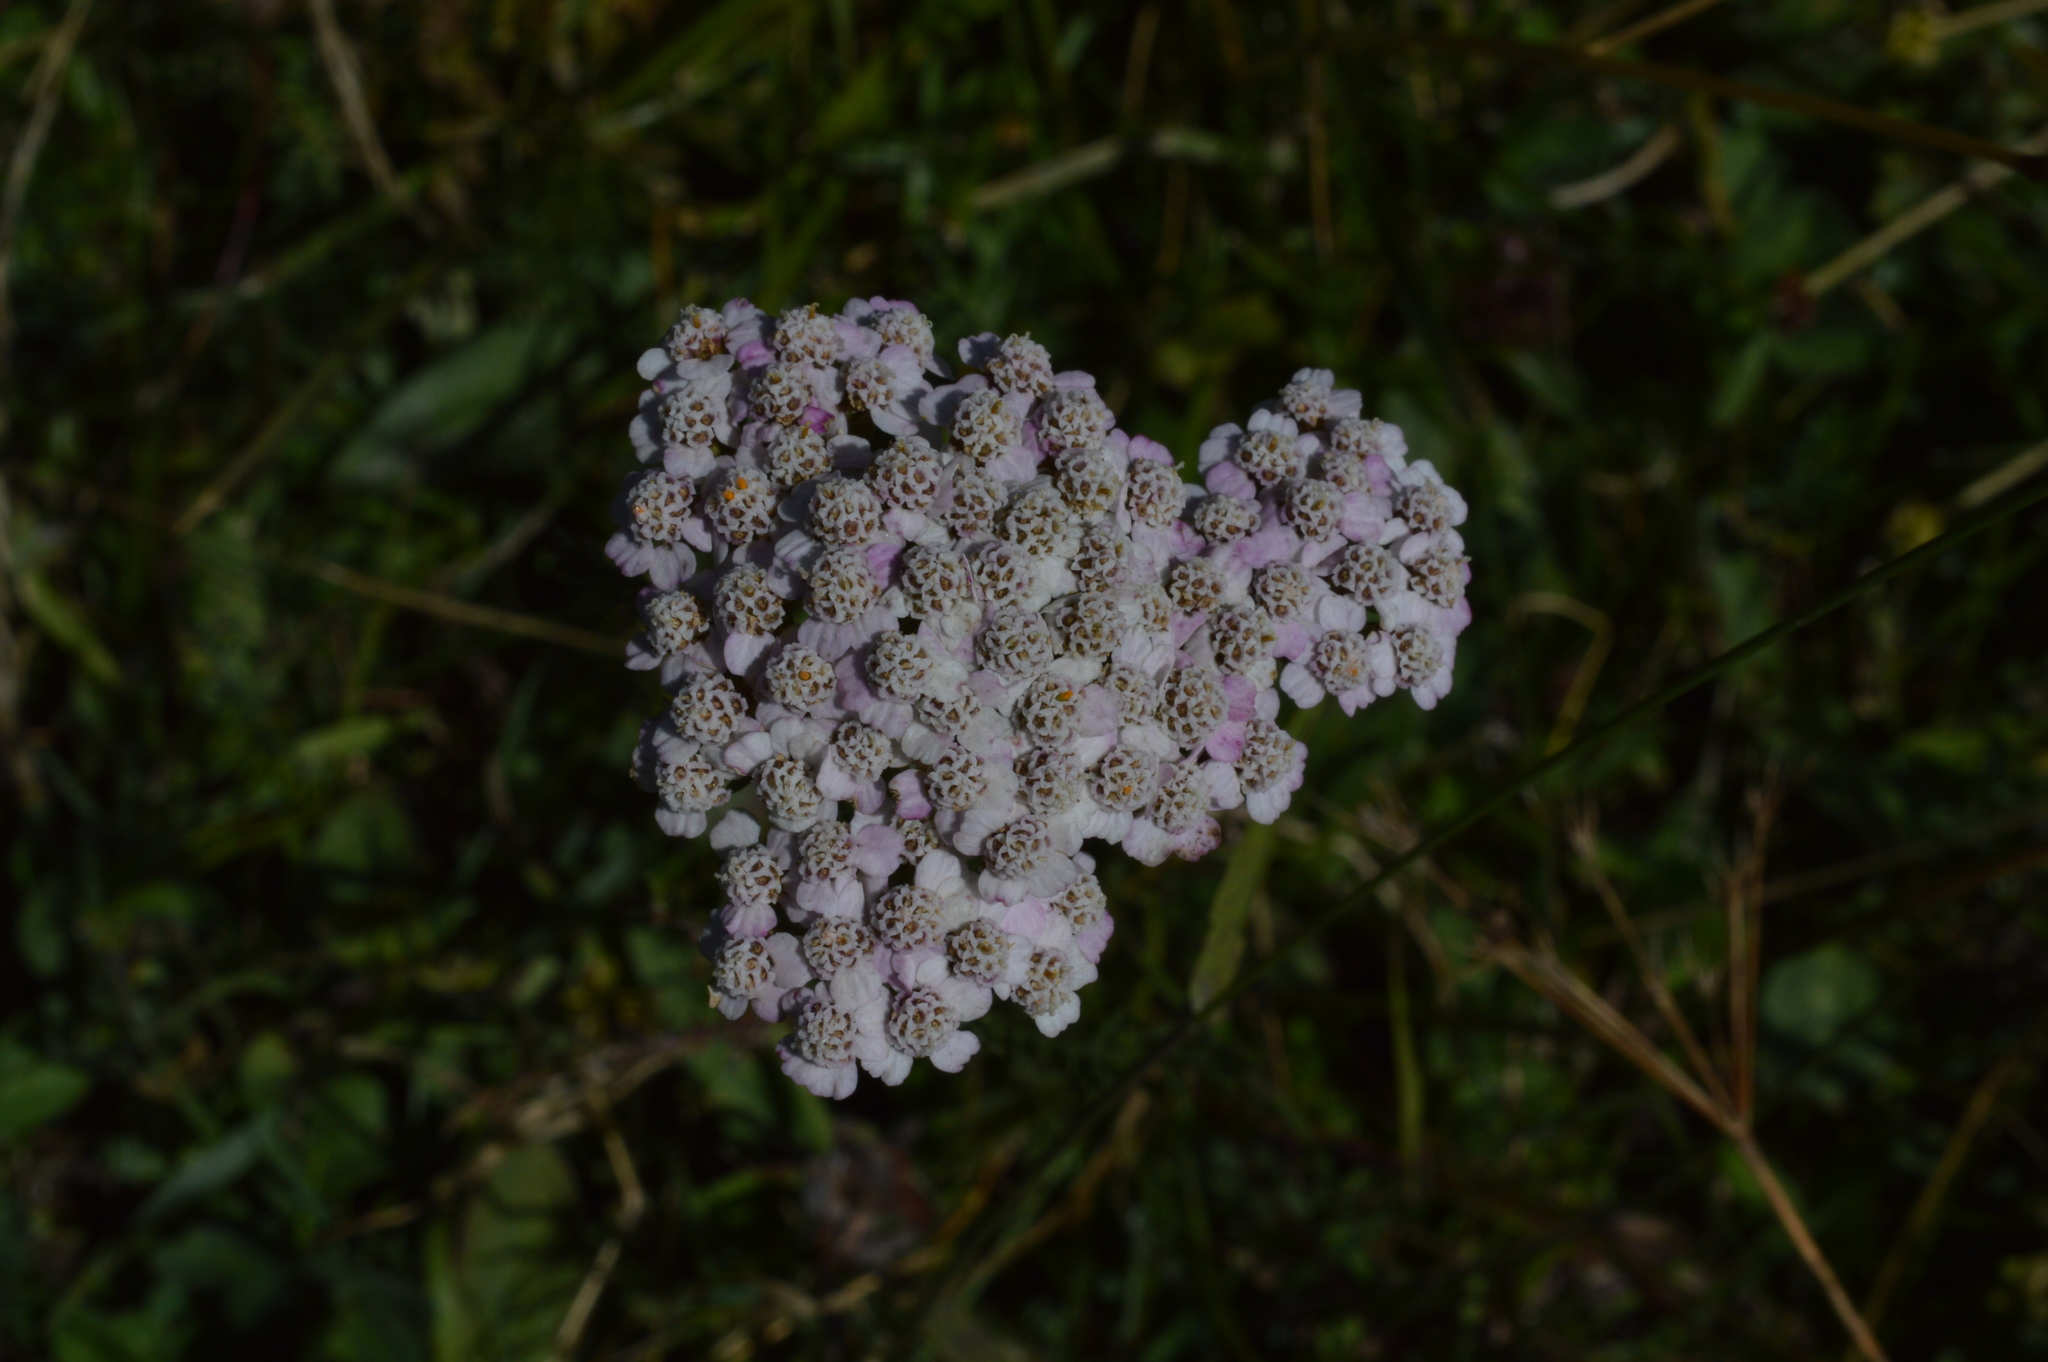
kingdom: Plantae
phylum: Tracheophyta
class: Magnoliopsida
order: Asterales
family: Asteraceae
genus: Achillea
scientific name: Achillea millefolium
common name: Yarrow
